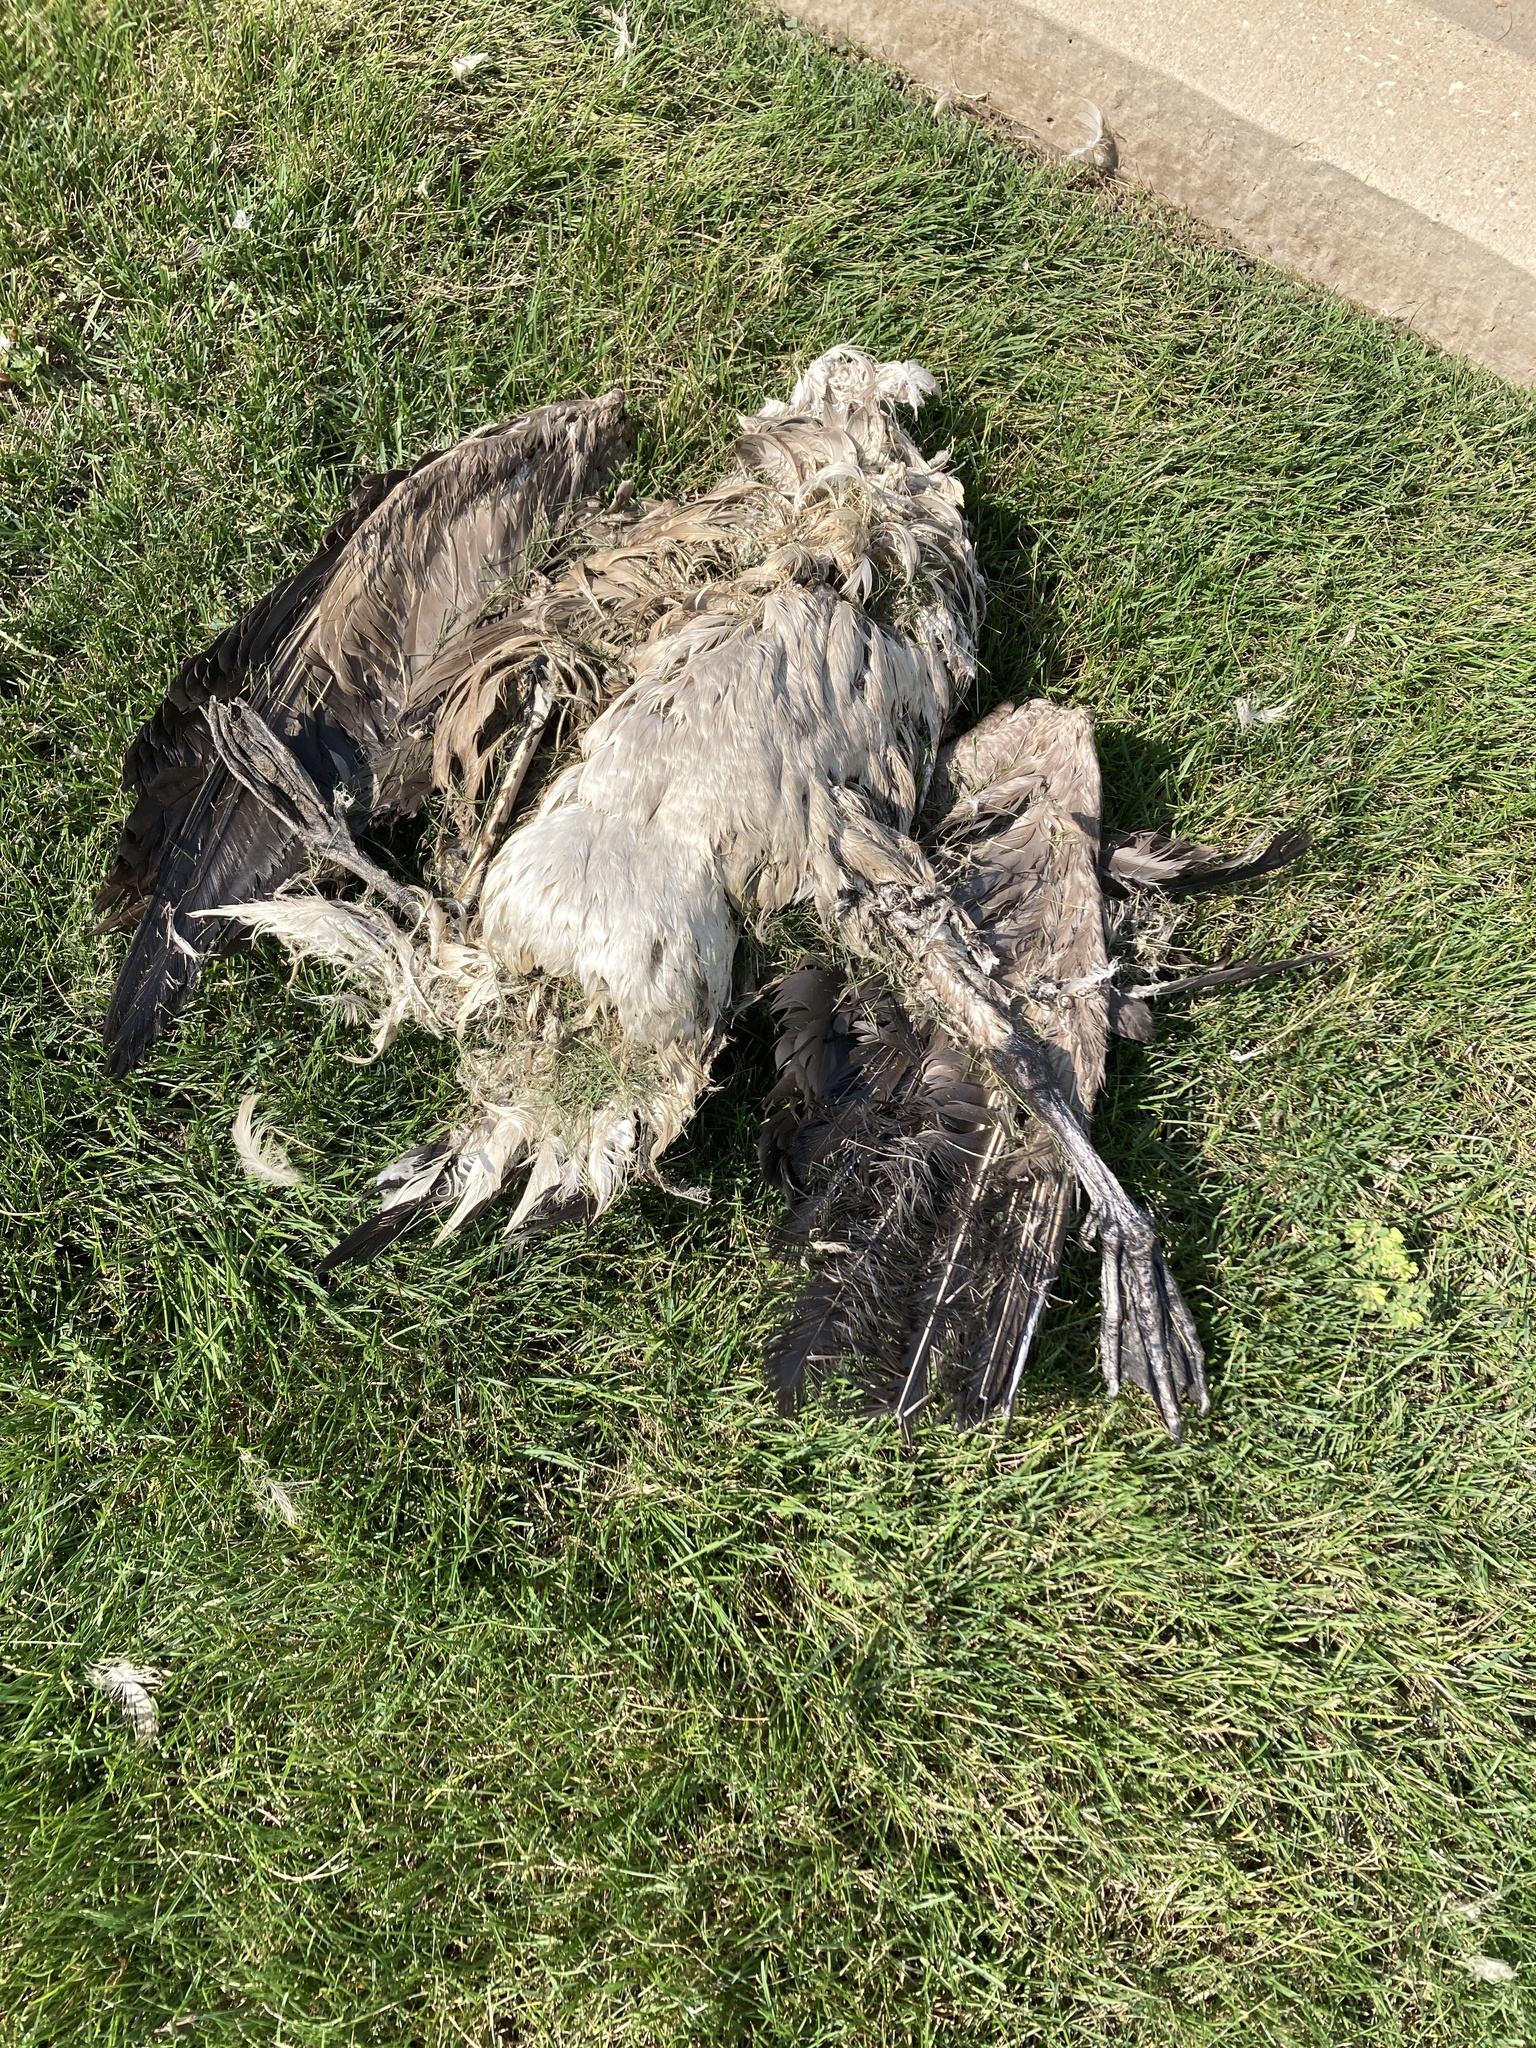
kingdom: Animalia
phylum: Chordata
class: Aves
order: Anseriformes
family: Anatidae
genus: Branta
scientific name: Branta canadensis
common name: Canada goose
